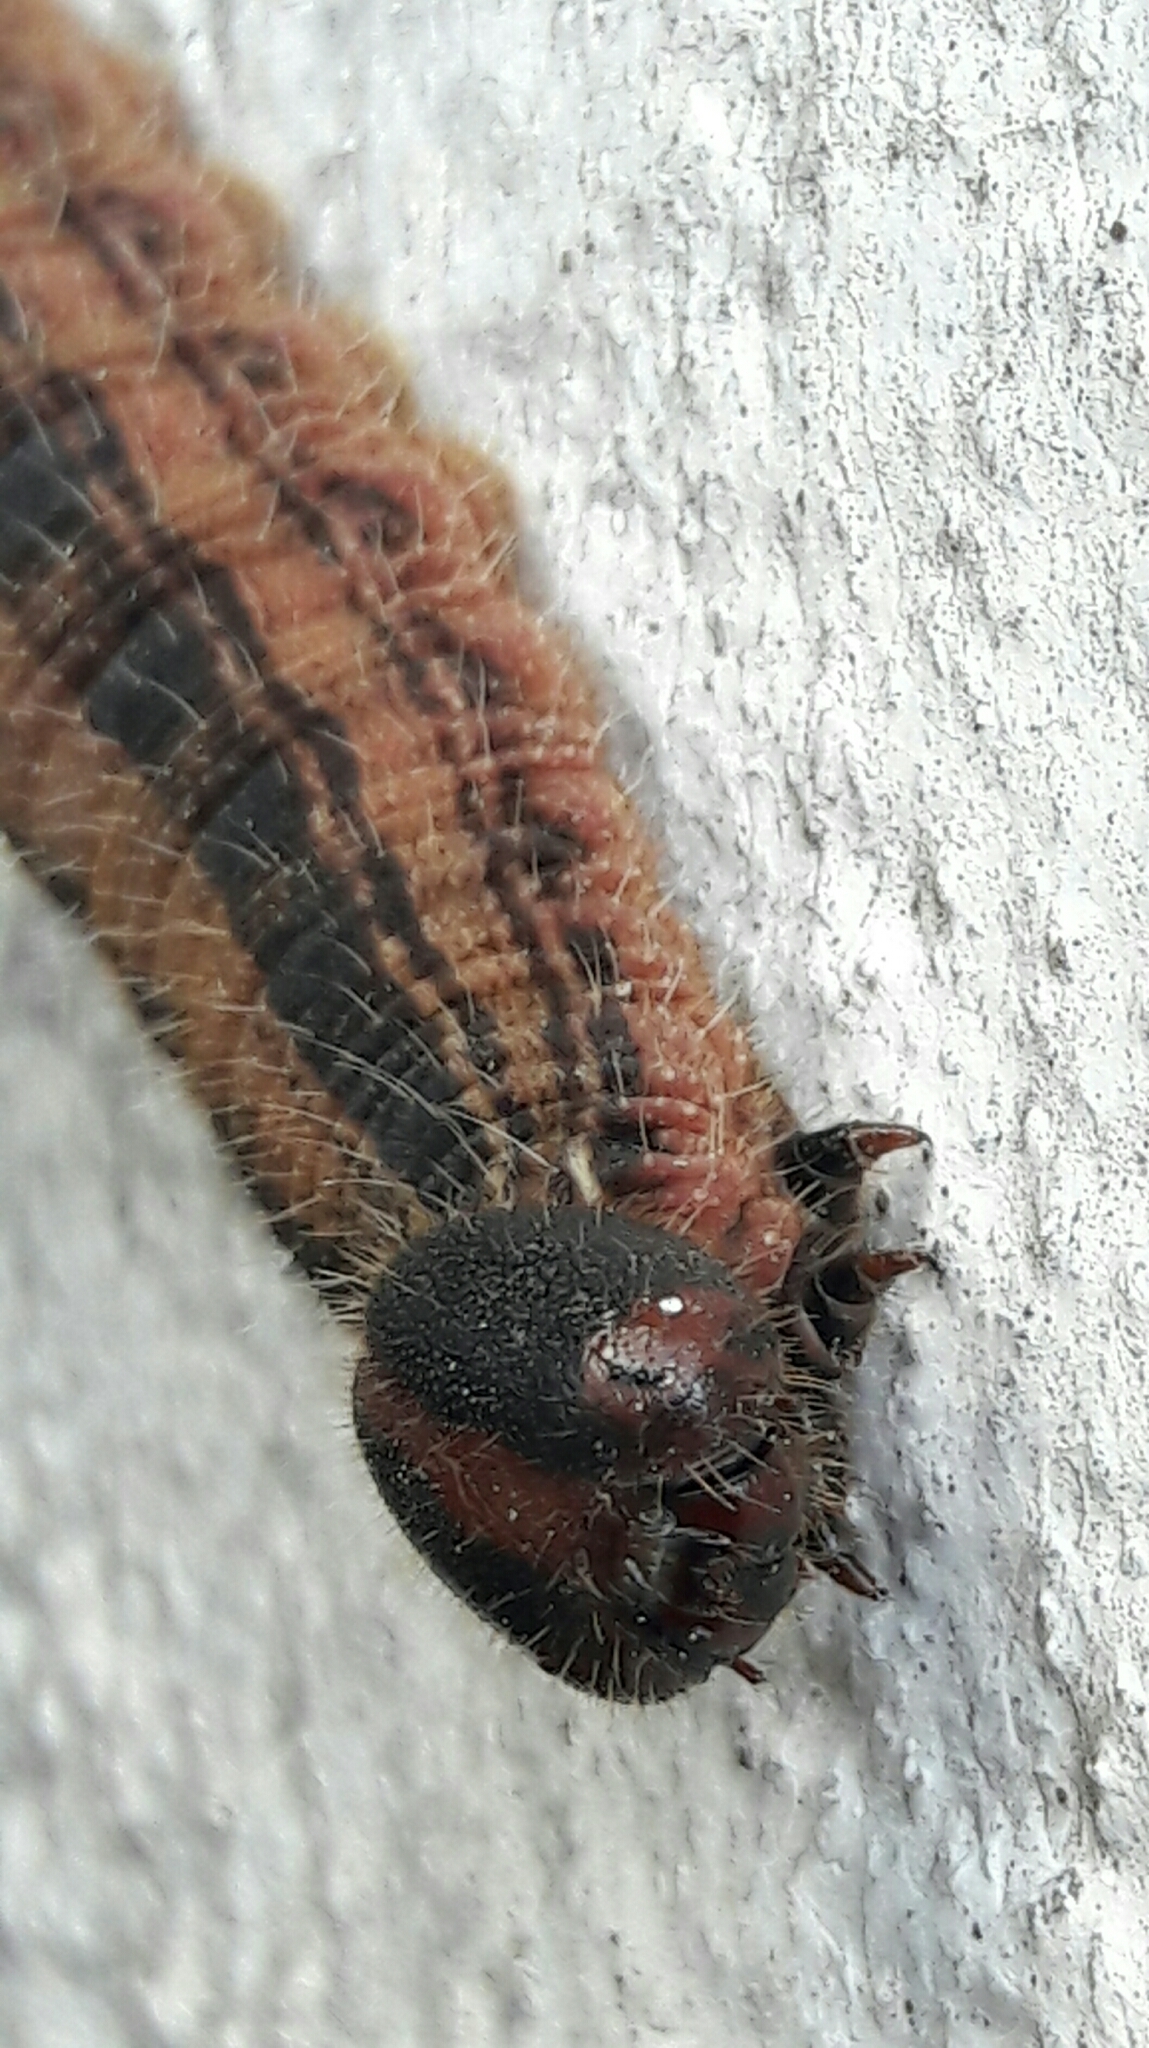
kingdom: Animalia
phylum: Arthropoda
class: Insecta
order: Lepidoptera
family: Nymphalidae
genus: Brassolis
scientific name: Brassolis sophorae
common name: Coconut caterpillar
